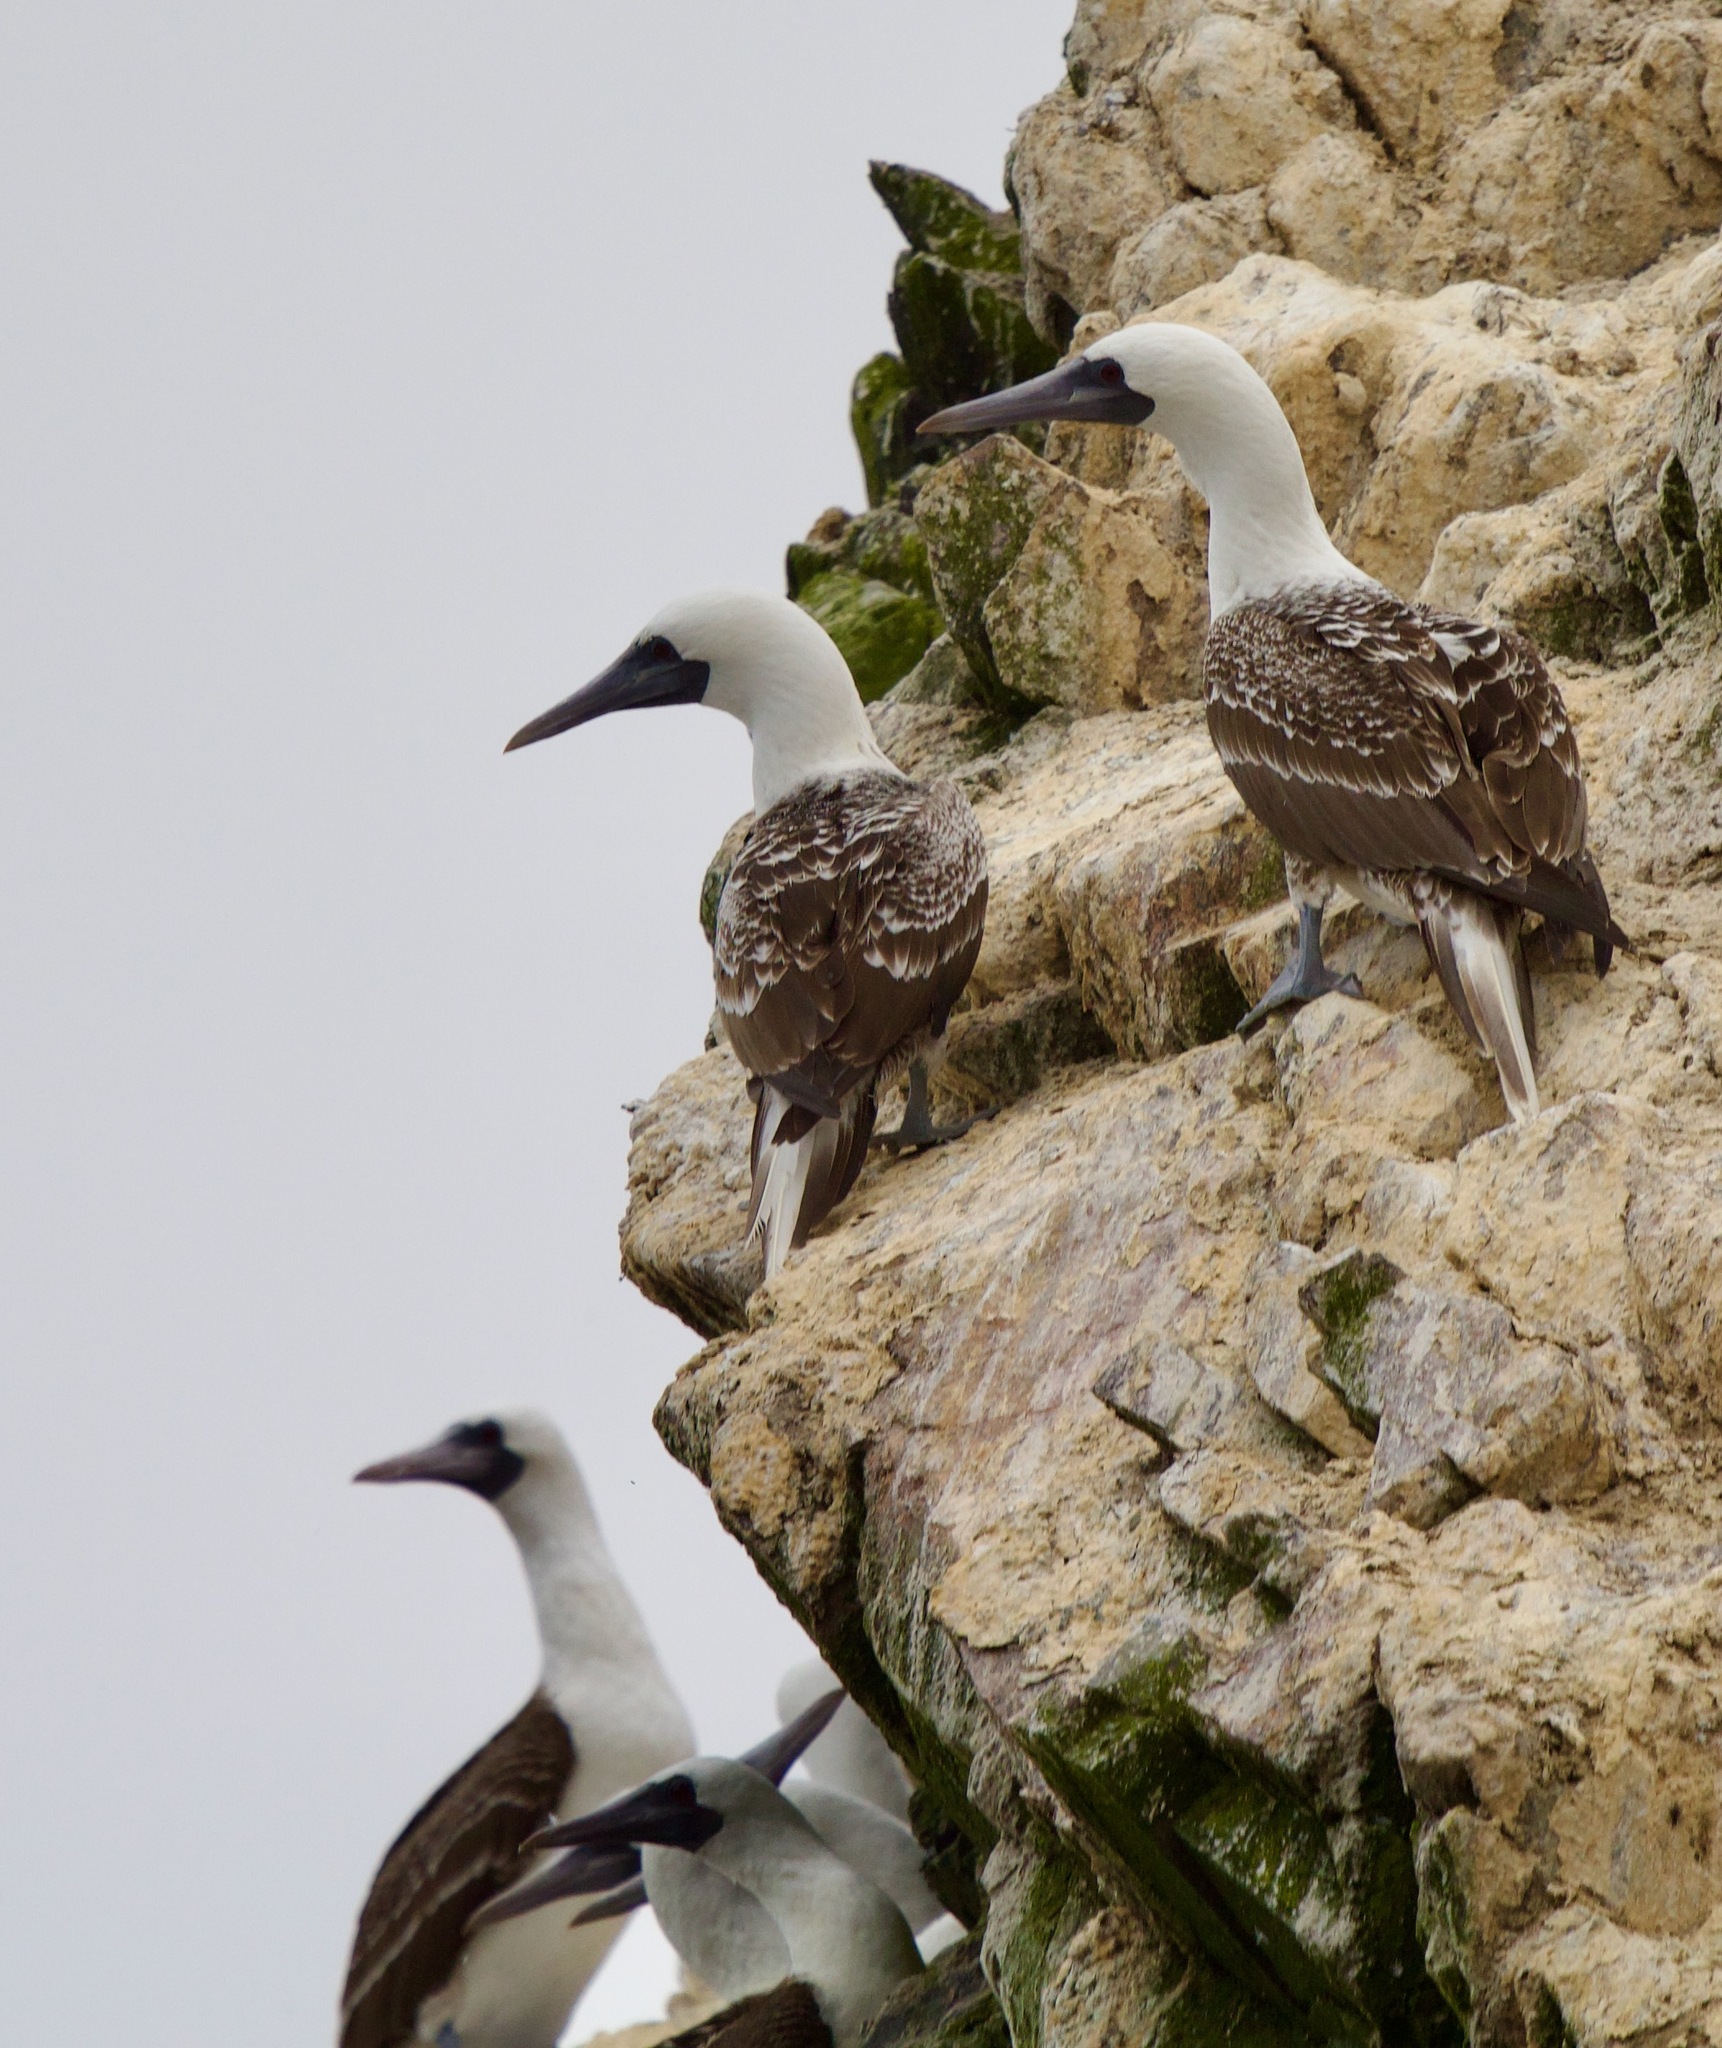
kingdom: Animalia
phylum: Chordata
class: Aves
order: Suliformes
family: Sulidae
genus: Sula
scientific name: Sula variegata
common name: Peruvian booby
